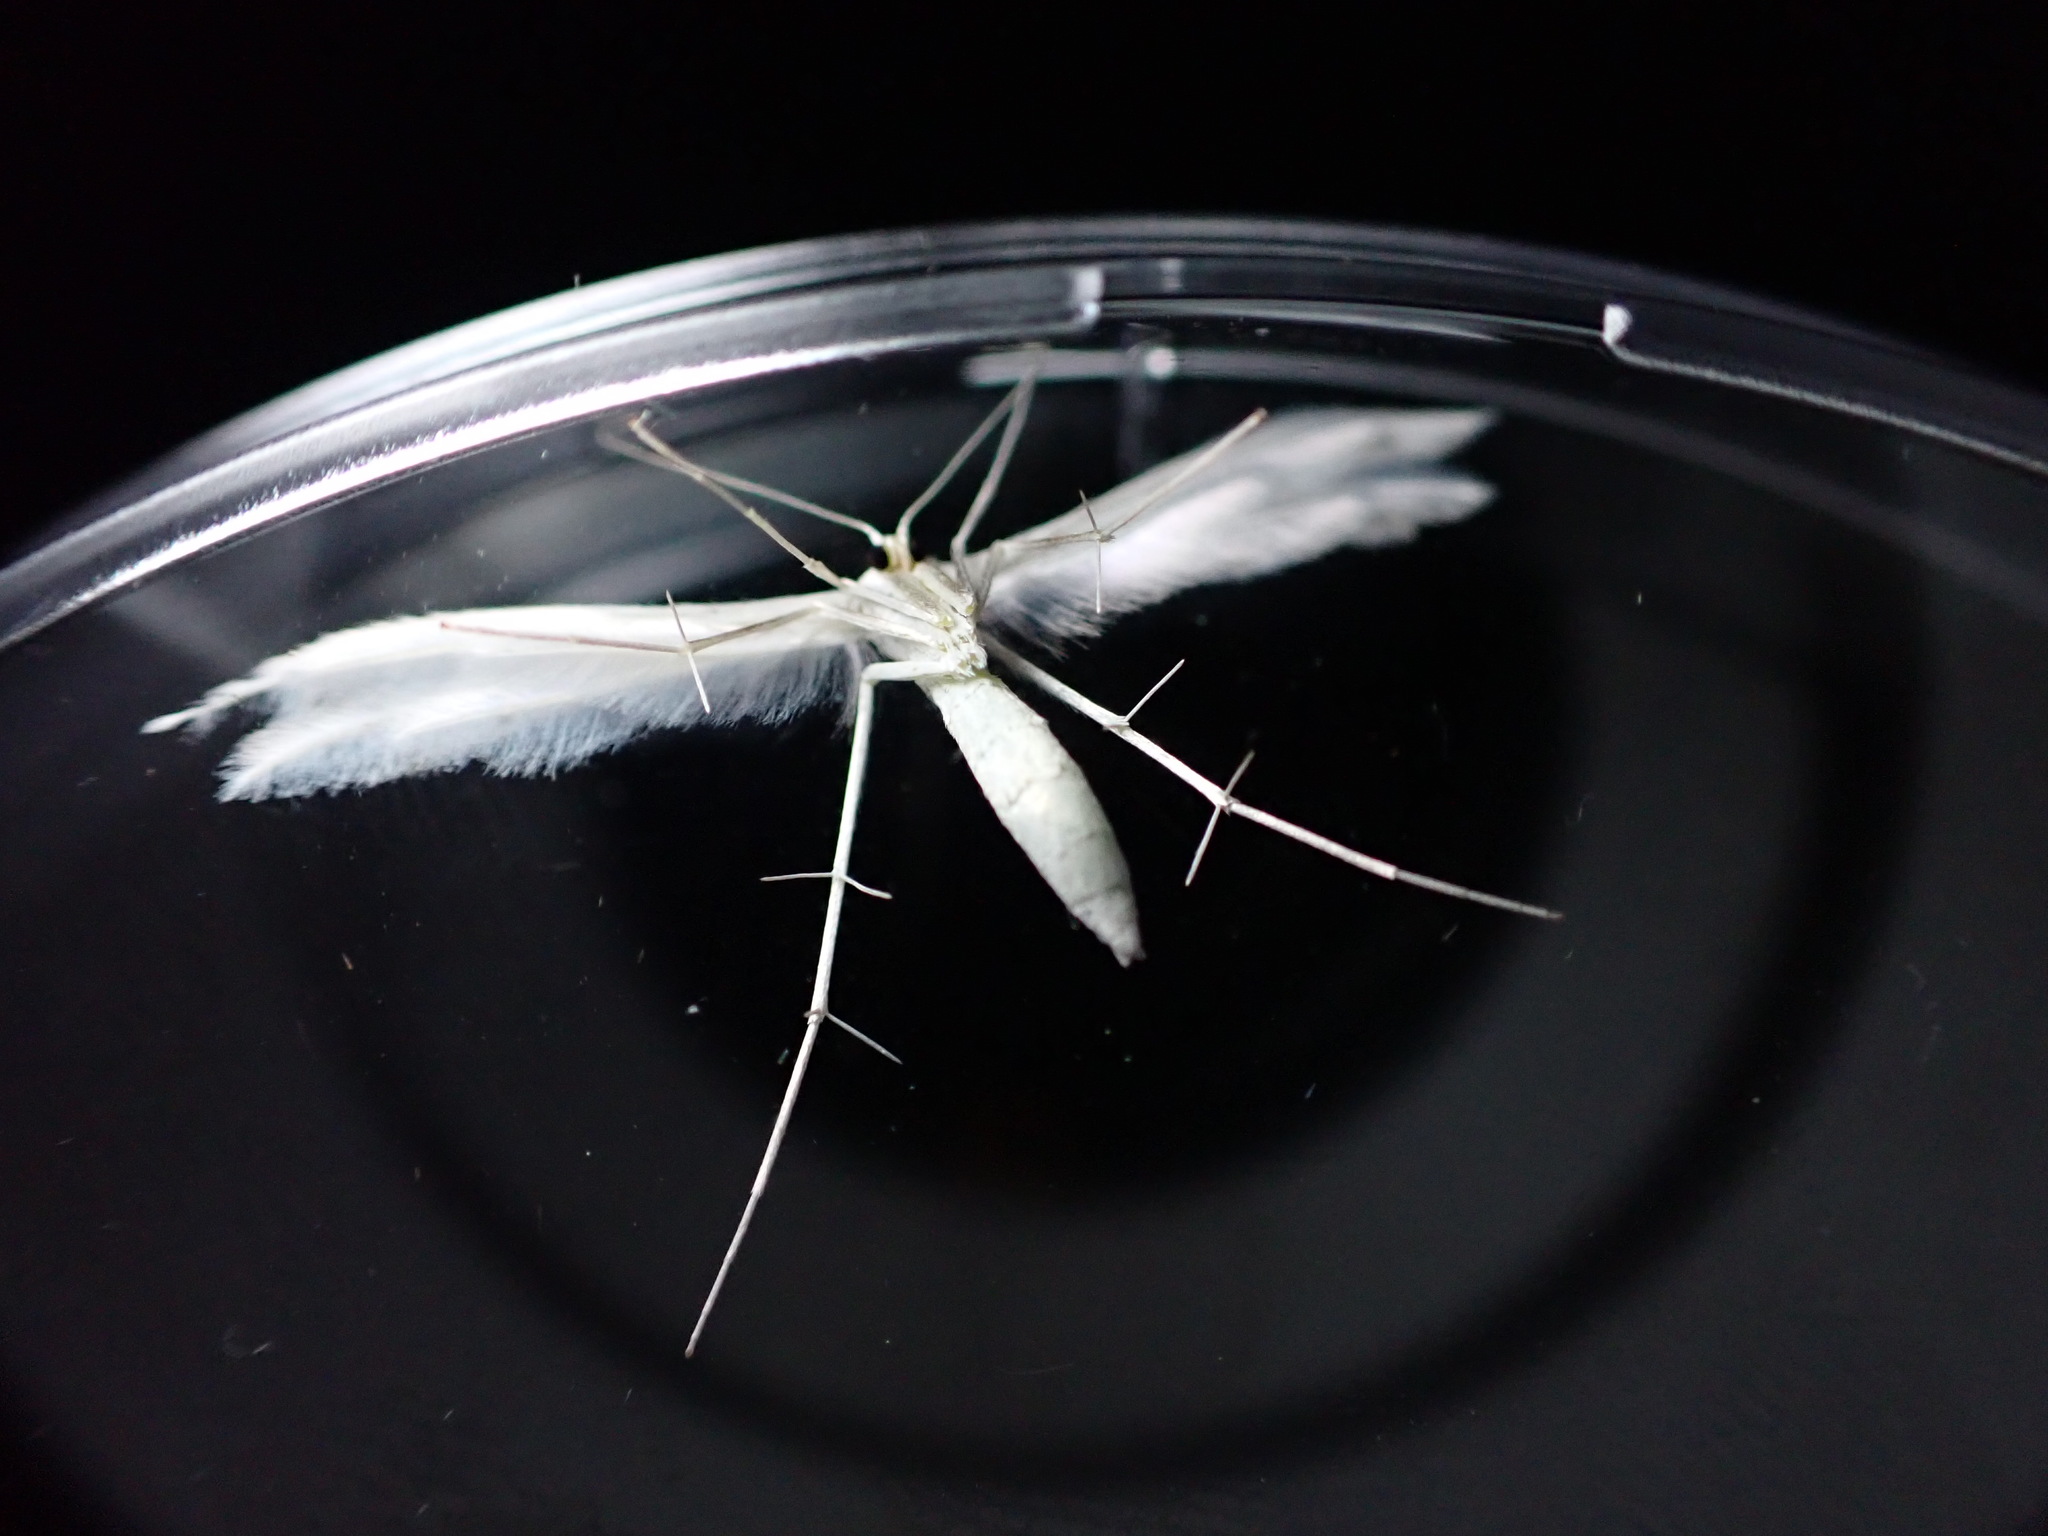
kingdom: Animalia
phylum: Arthropoda
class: Insecta
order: Lepidoptera
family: Pterophoridae
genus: Pterophorus
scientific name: Pterophorus pentadactyla
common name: White plume moth
